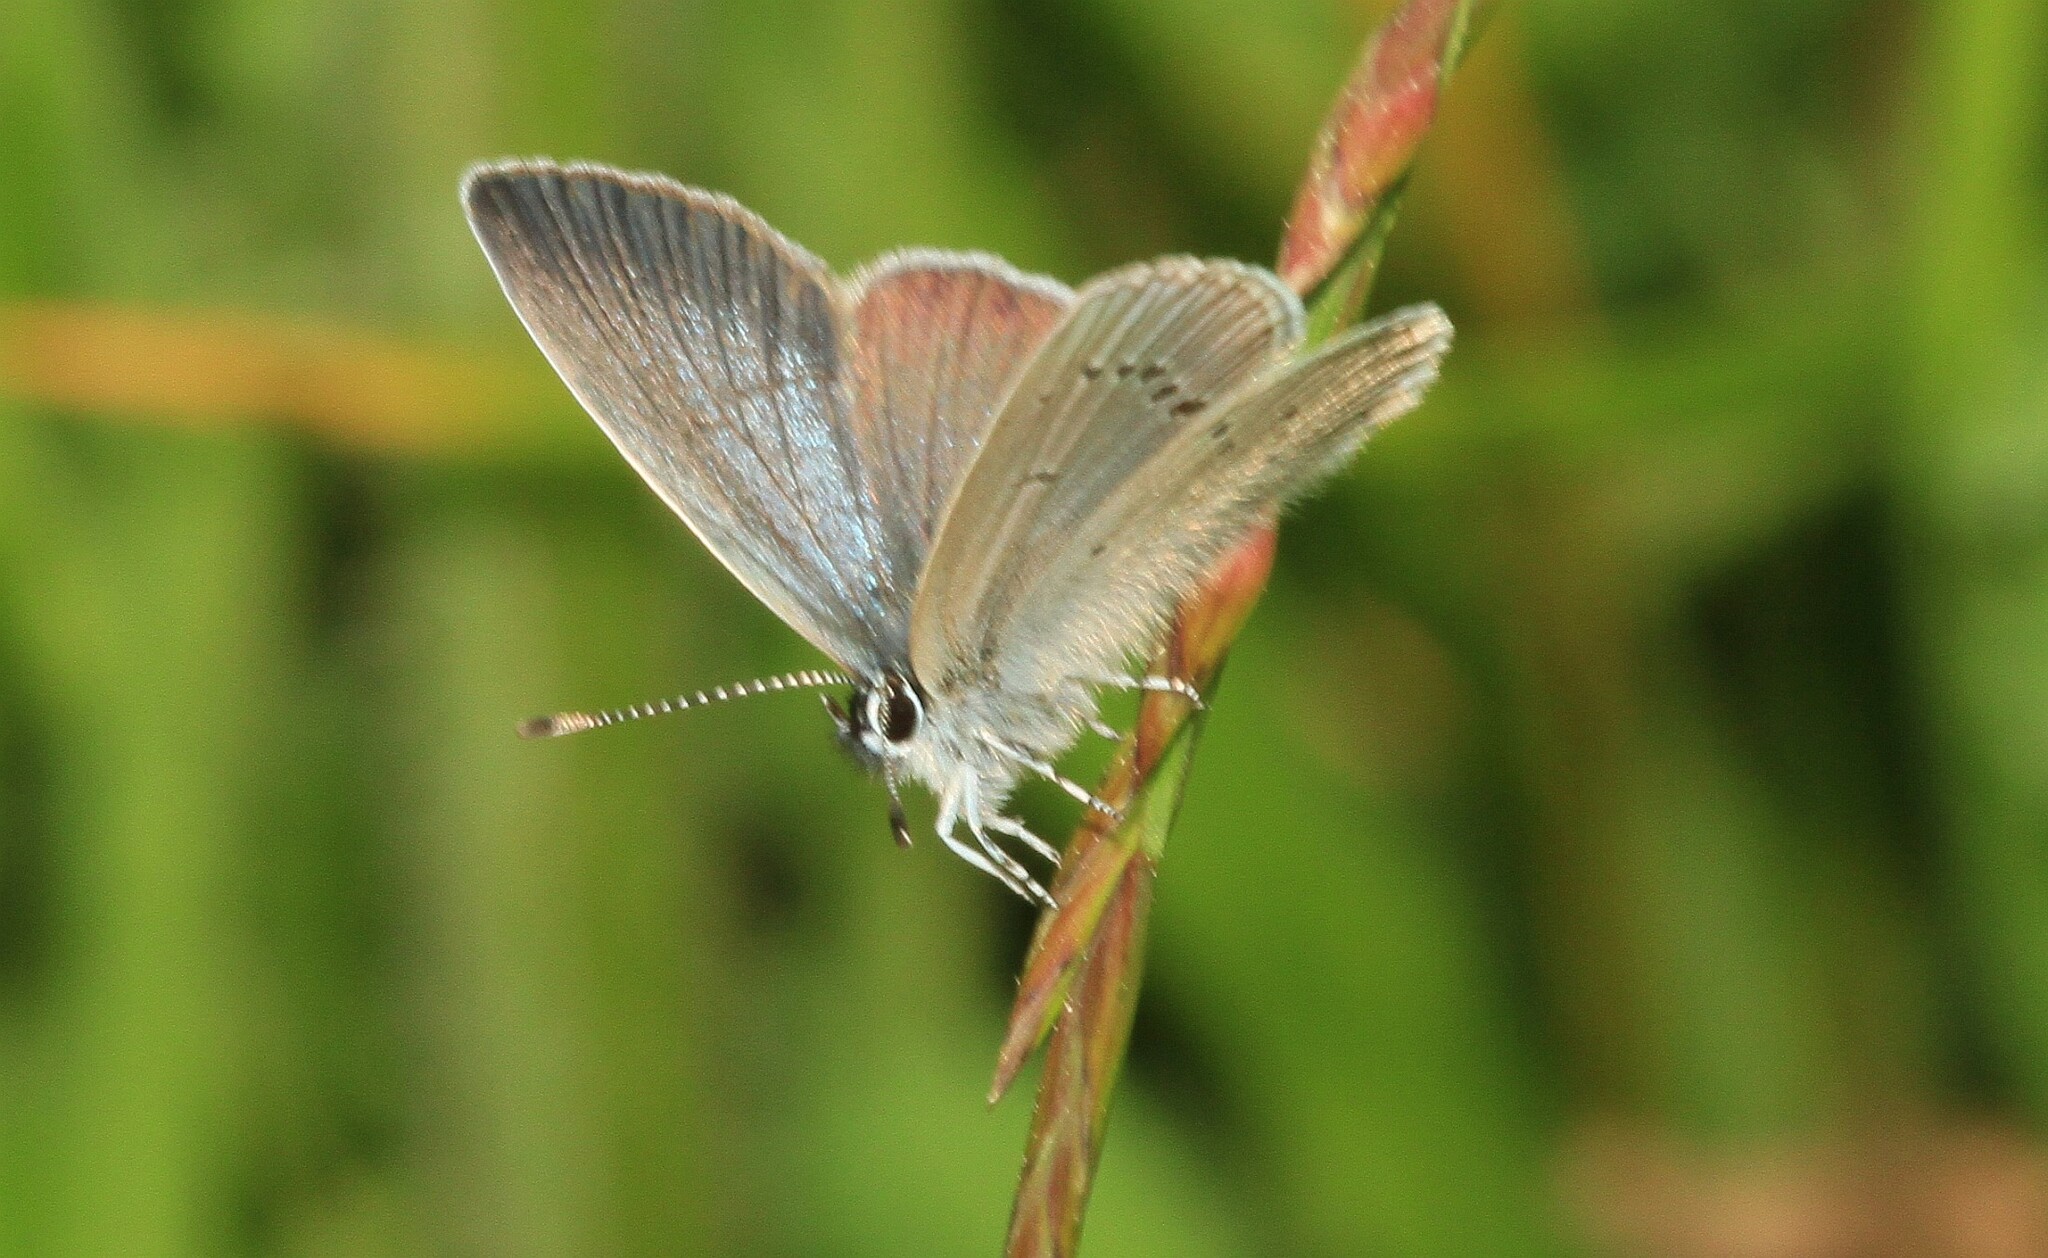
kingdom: Animalia
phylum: Arthropoda
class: Insecta
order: Lepidoptera
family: Lycaenidae
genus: Cupido
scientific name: Cupido minimus
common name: Small blue
